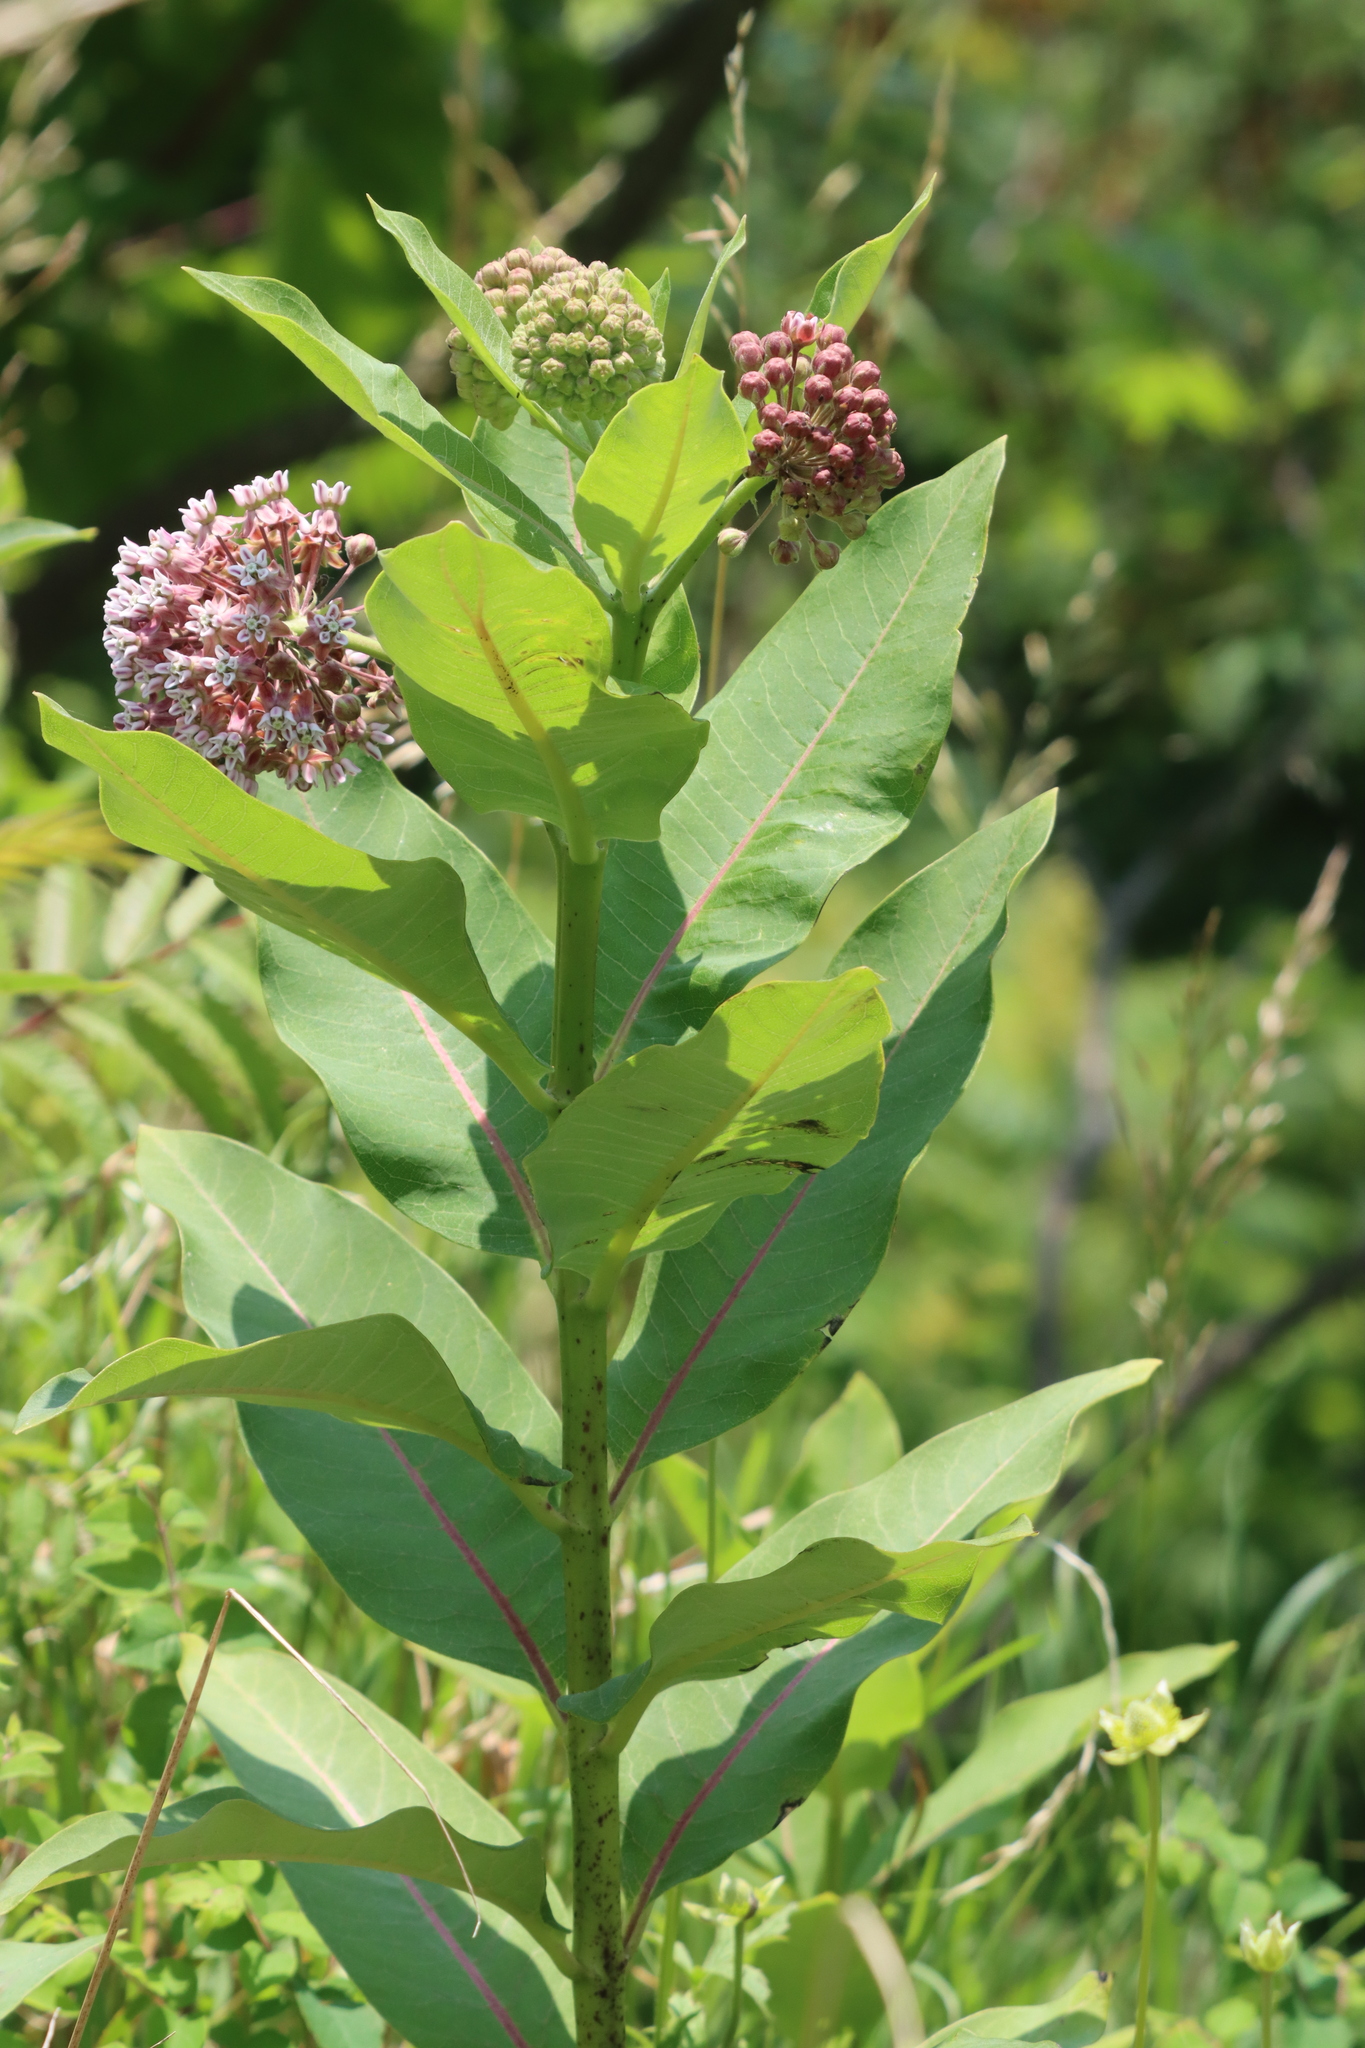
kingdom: Plantae
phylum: Tracheophyta
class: Magnoliopsida
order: Gentianales
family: Apocynaceae
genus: Asclepias
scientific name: Asclepias syriaca
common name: Common milkweed
